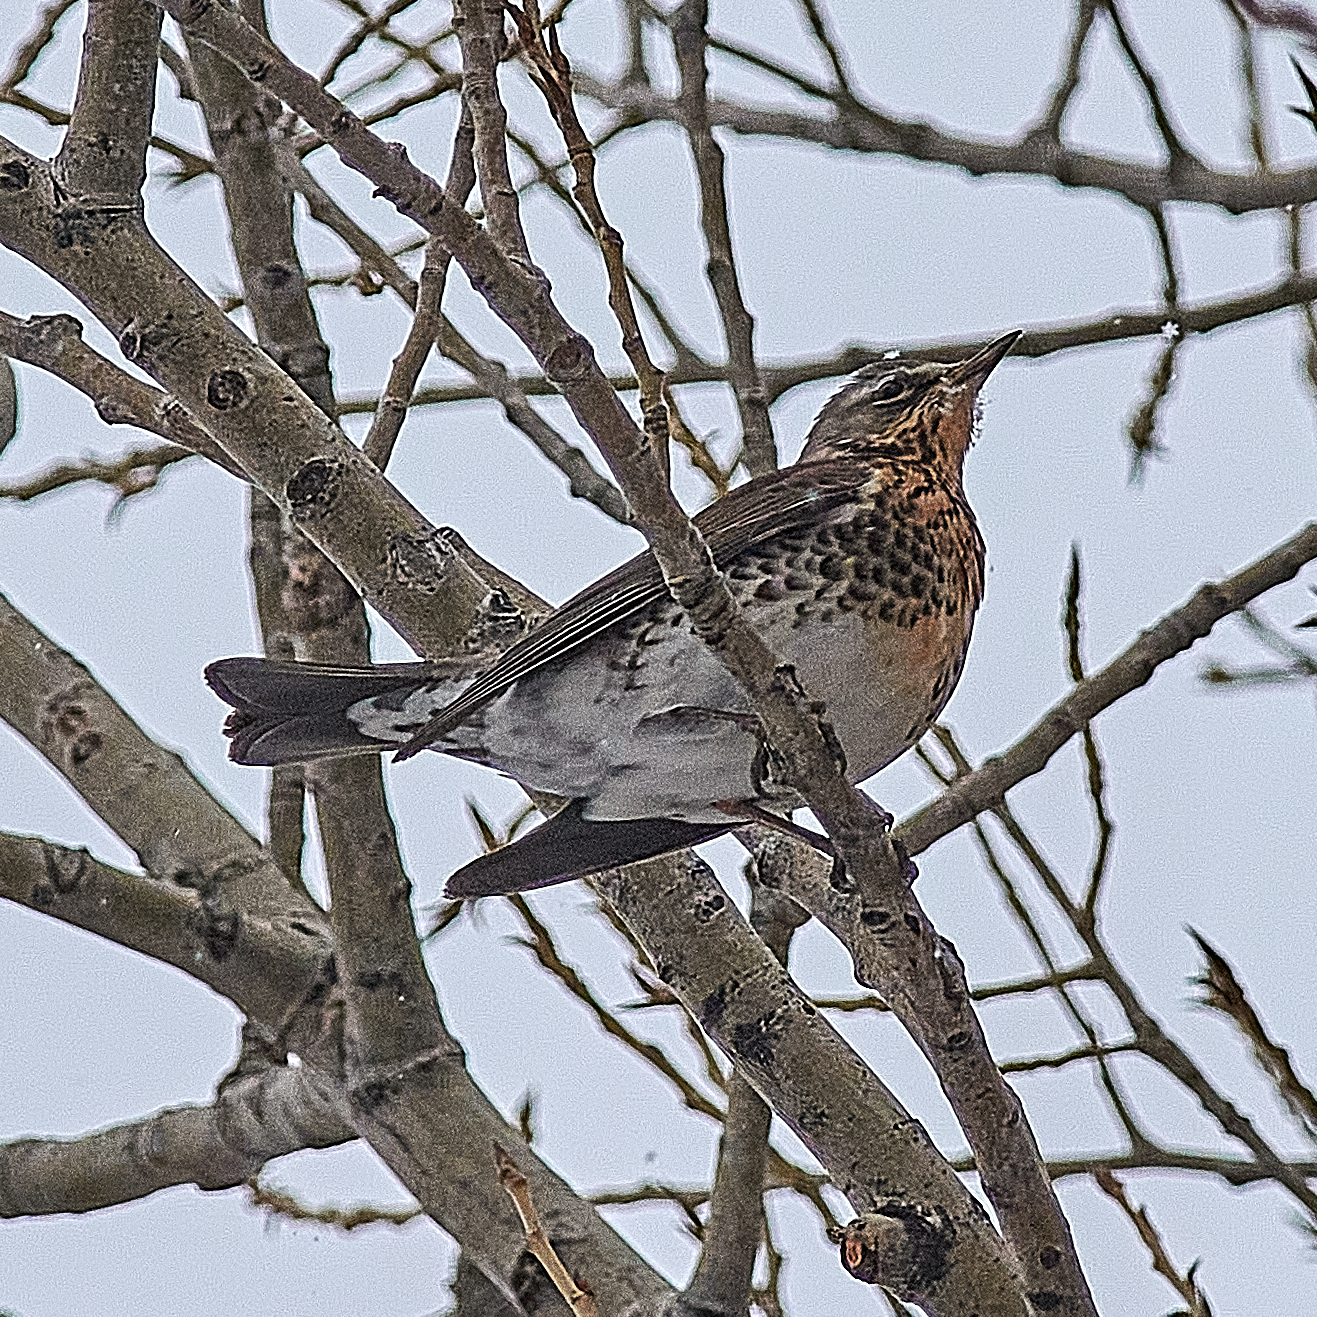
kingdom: Animalia
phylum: Chordata
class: Aves
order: Passeriformes
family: Turdidae
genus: Turdus
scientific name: Turdus pilaris
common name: Fieldfare
